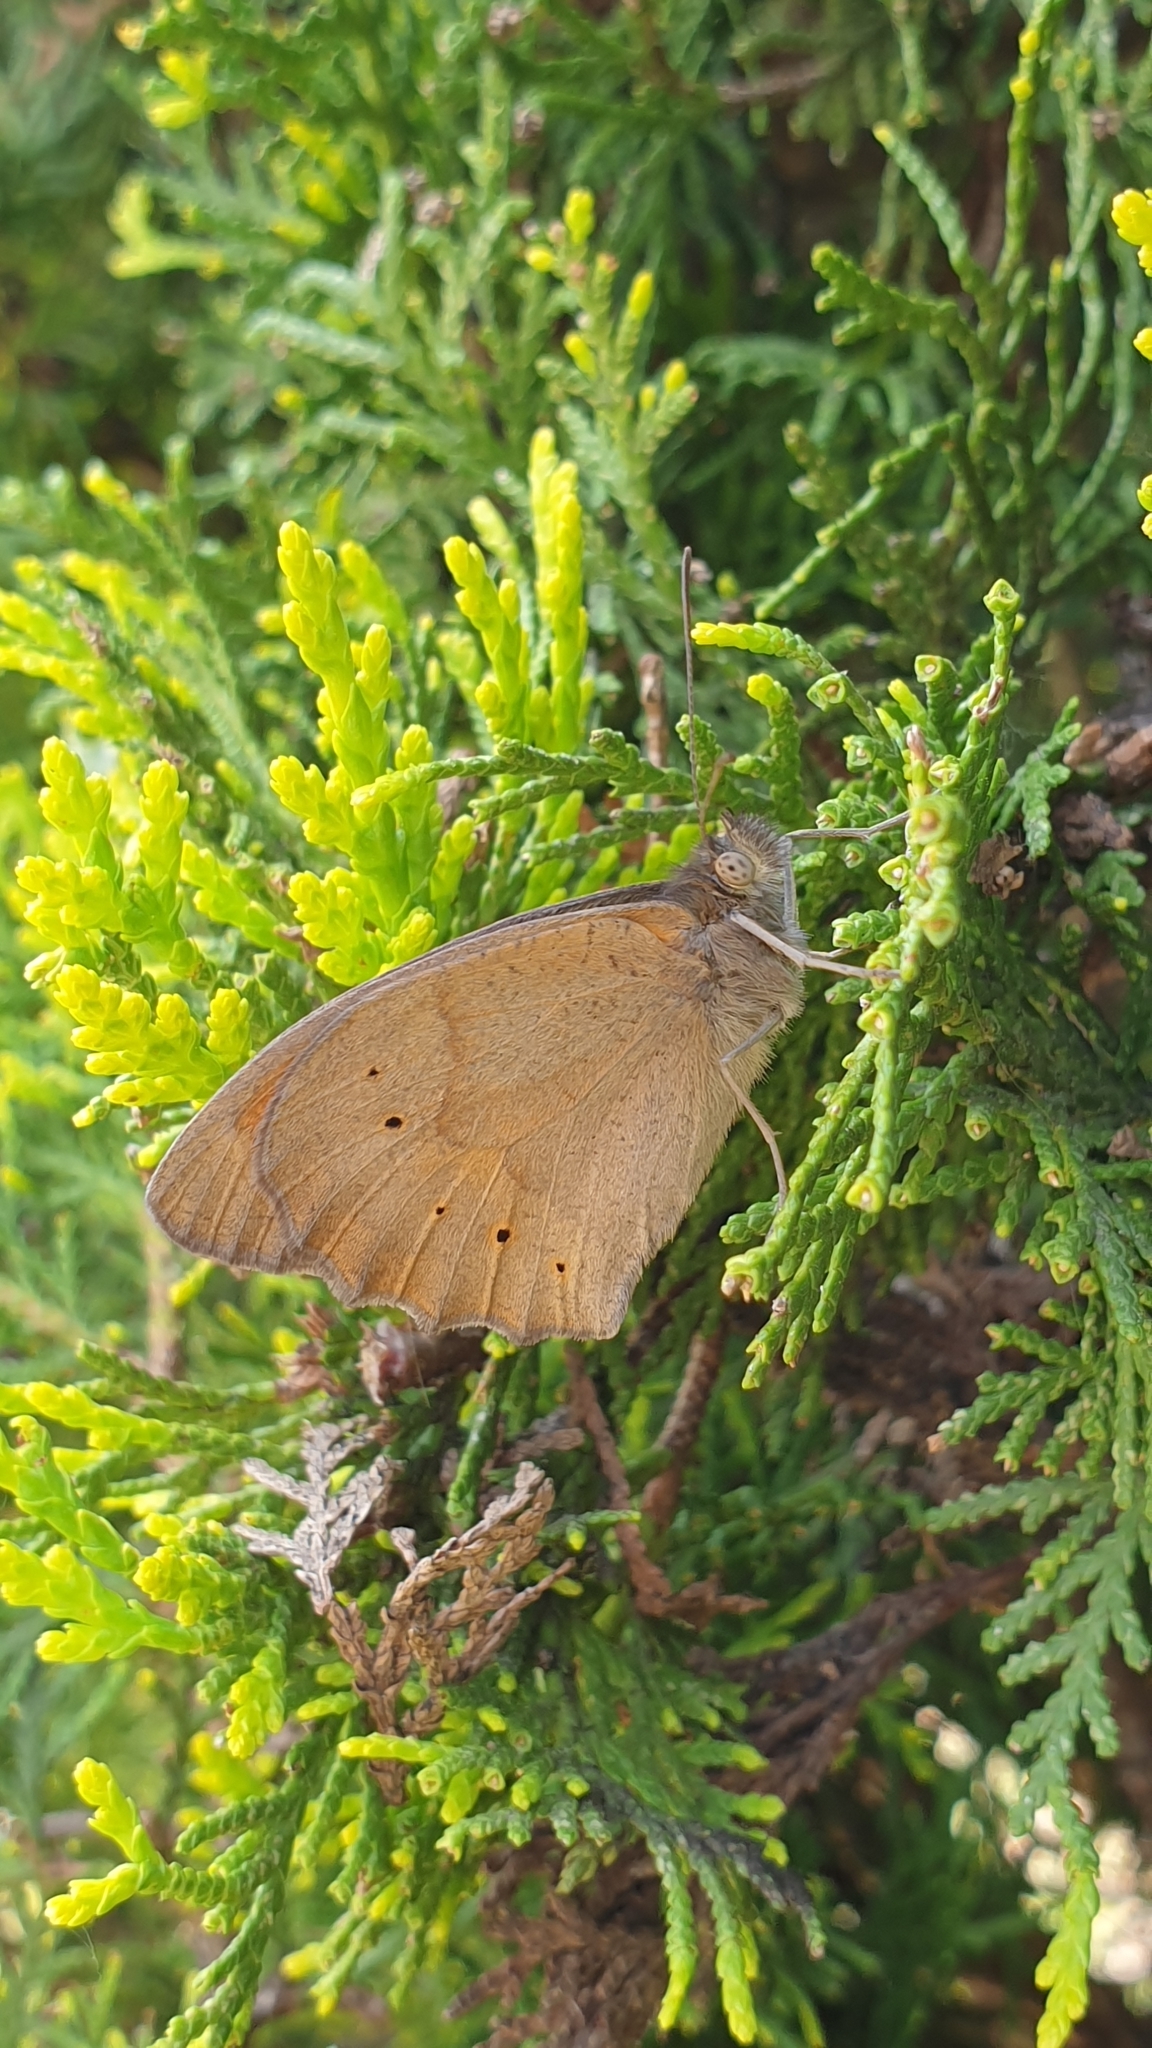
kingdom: Animalia
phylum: Arthropoda
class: Insecta
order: Lepidoptera
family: Nymphalidae
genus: Maniola
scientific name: Maniola jurtina
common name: Meadow brown
